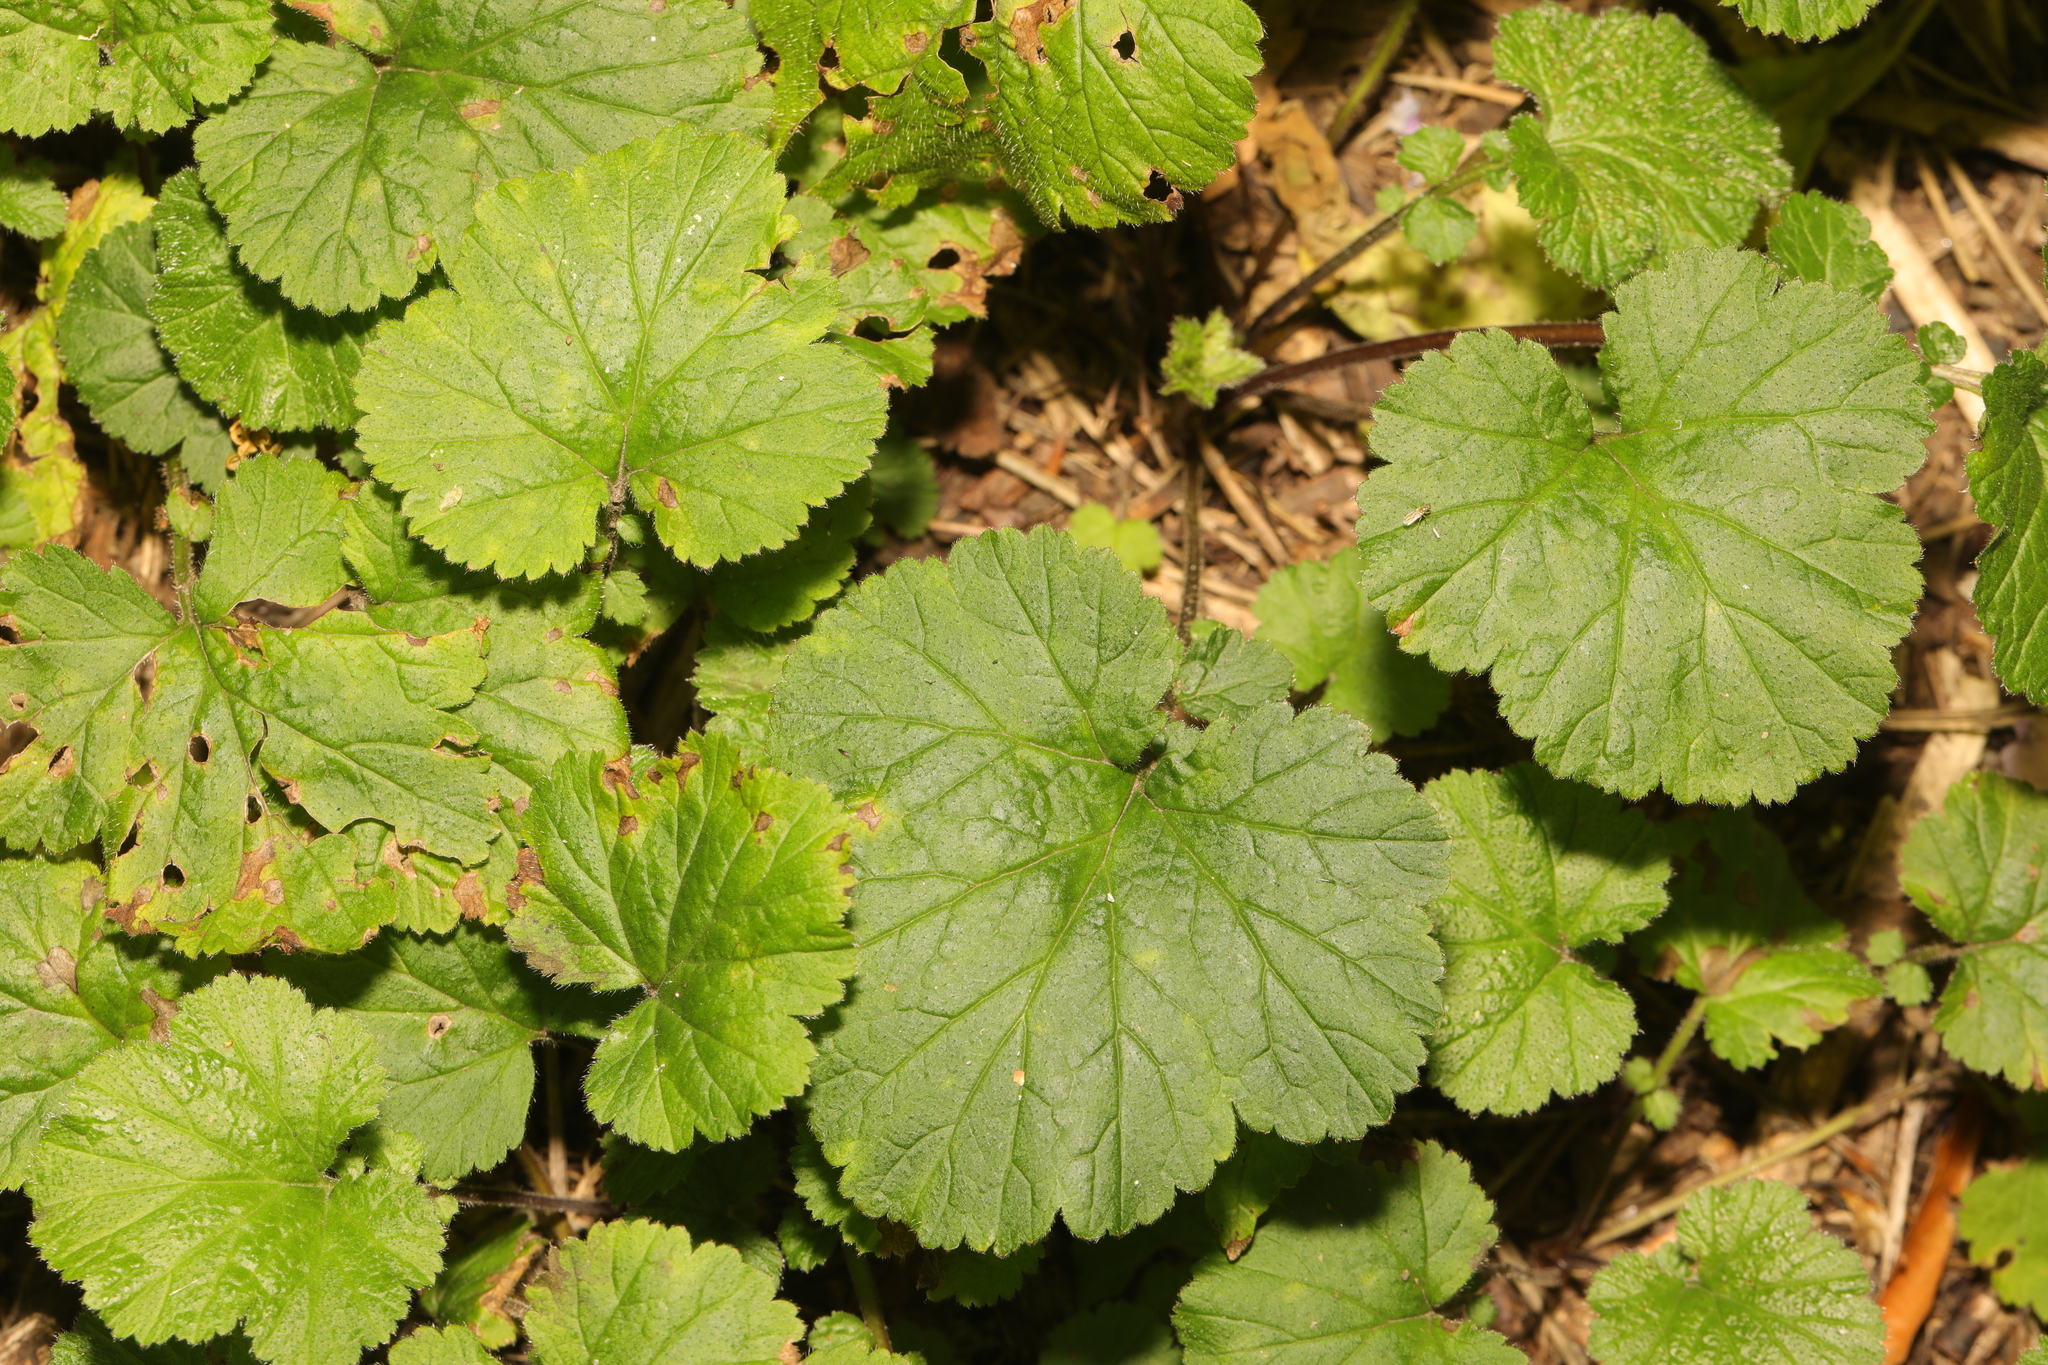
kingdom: Plantae
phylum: Tracheophyta
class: Magnoliopsida
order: Rosales
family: Rosaceae
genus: Geum
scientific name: Geum urbanum
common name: Wood avens
